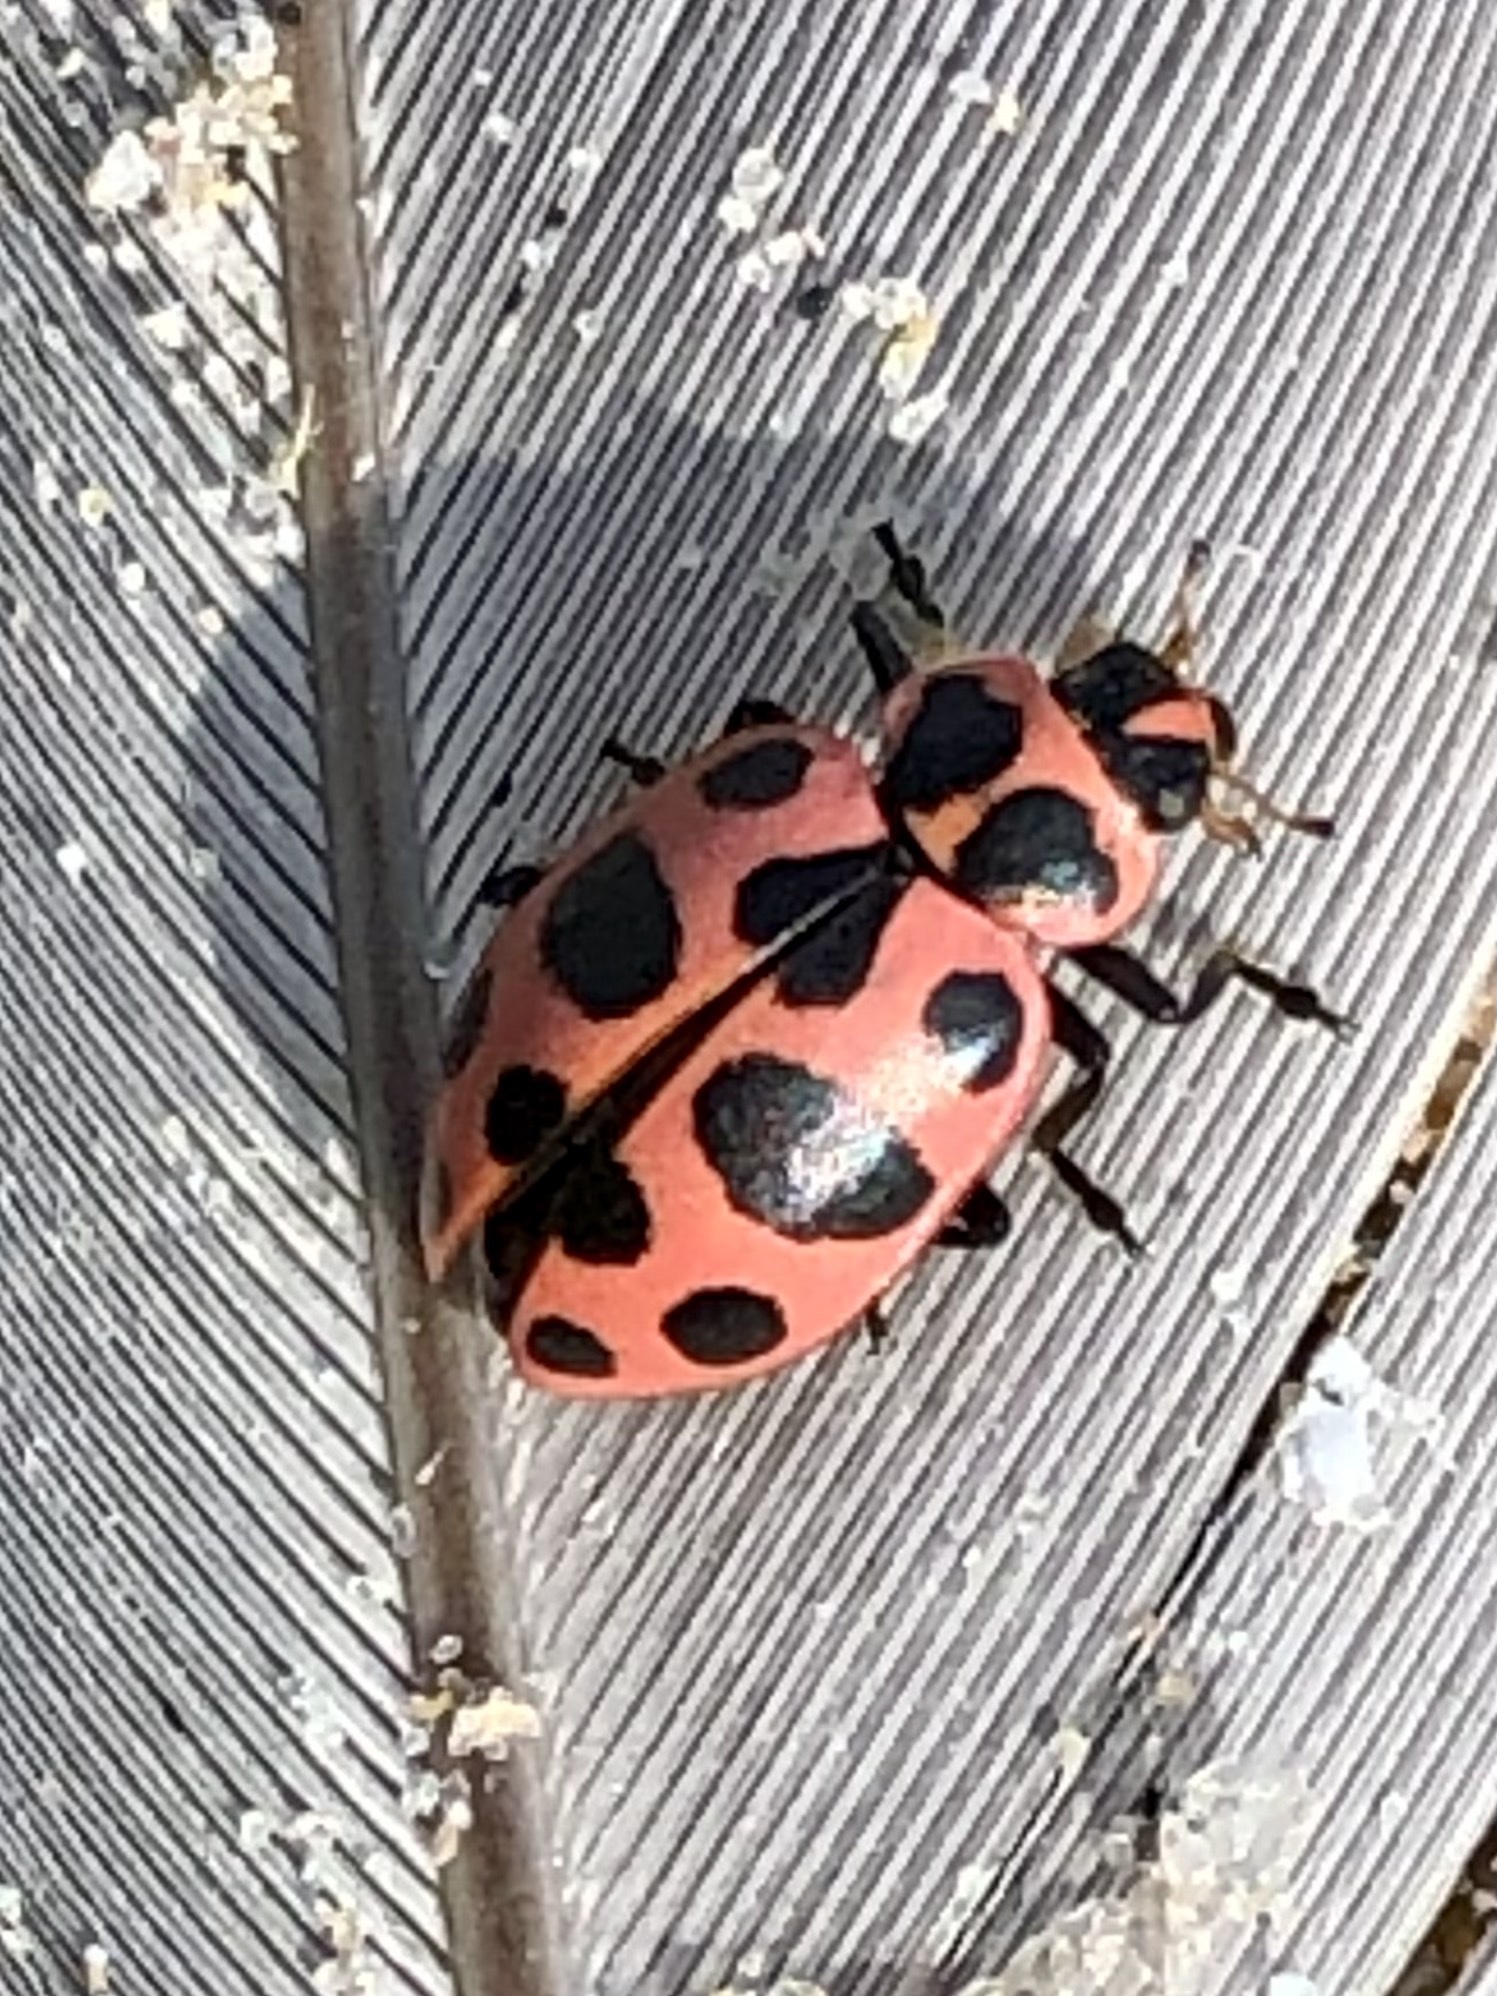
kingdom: Animalia
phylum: Arthropoda
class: Insecta
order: Coleoptera
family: Coccinellidae
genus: Coleomegilla
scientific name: Coleomegilla maculata
